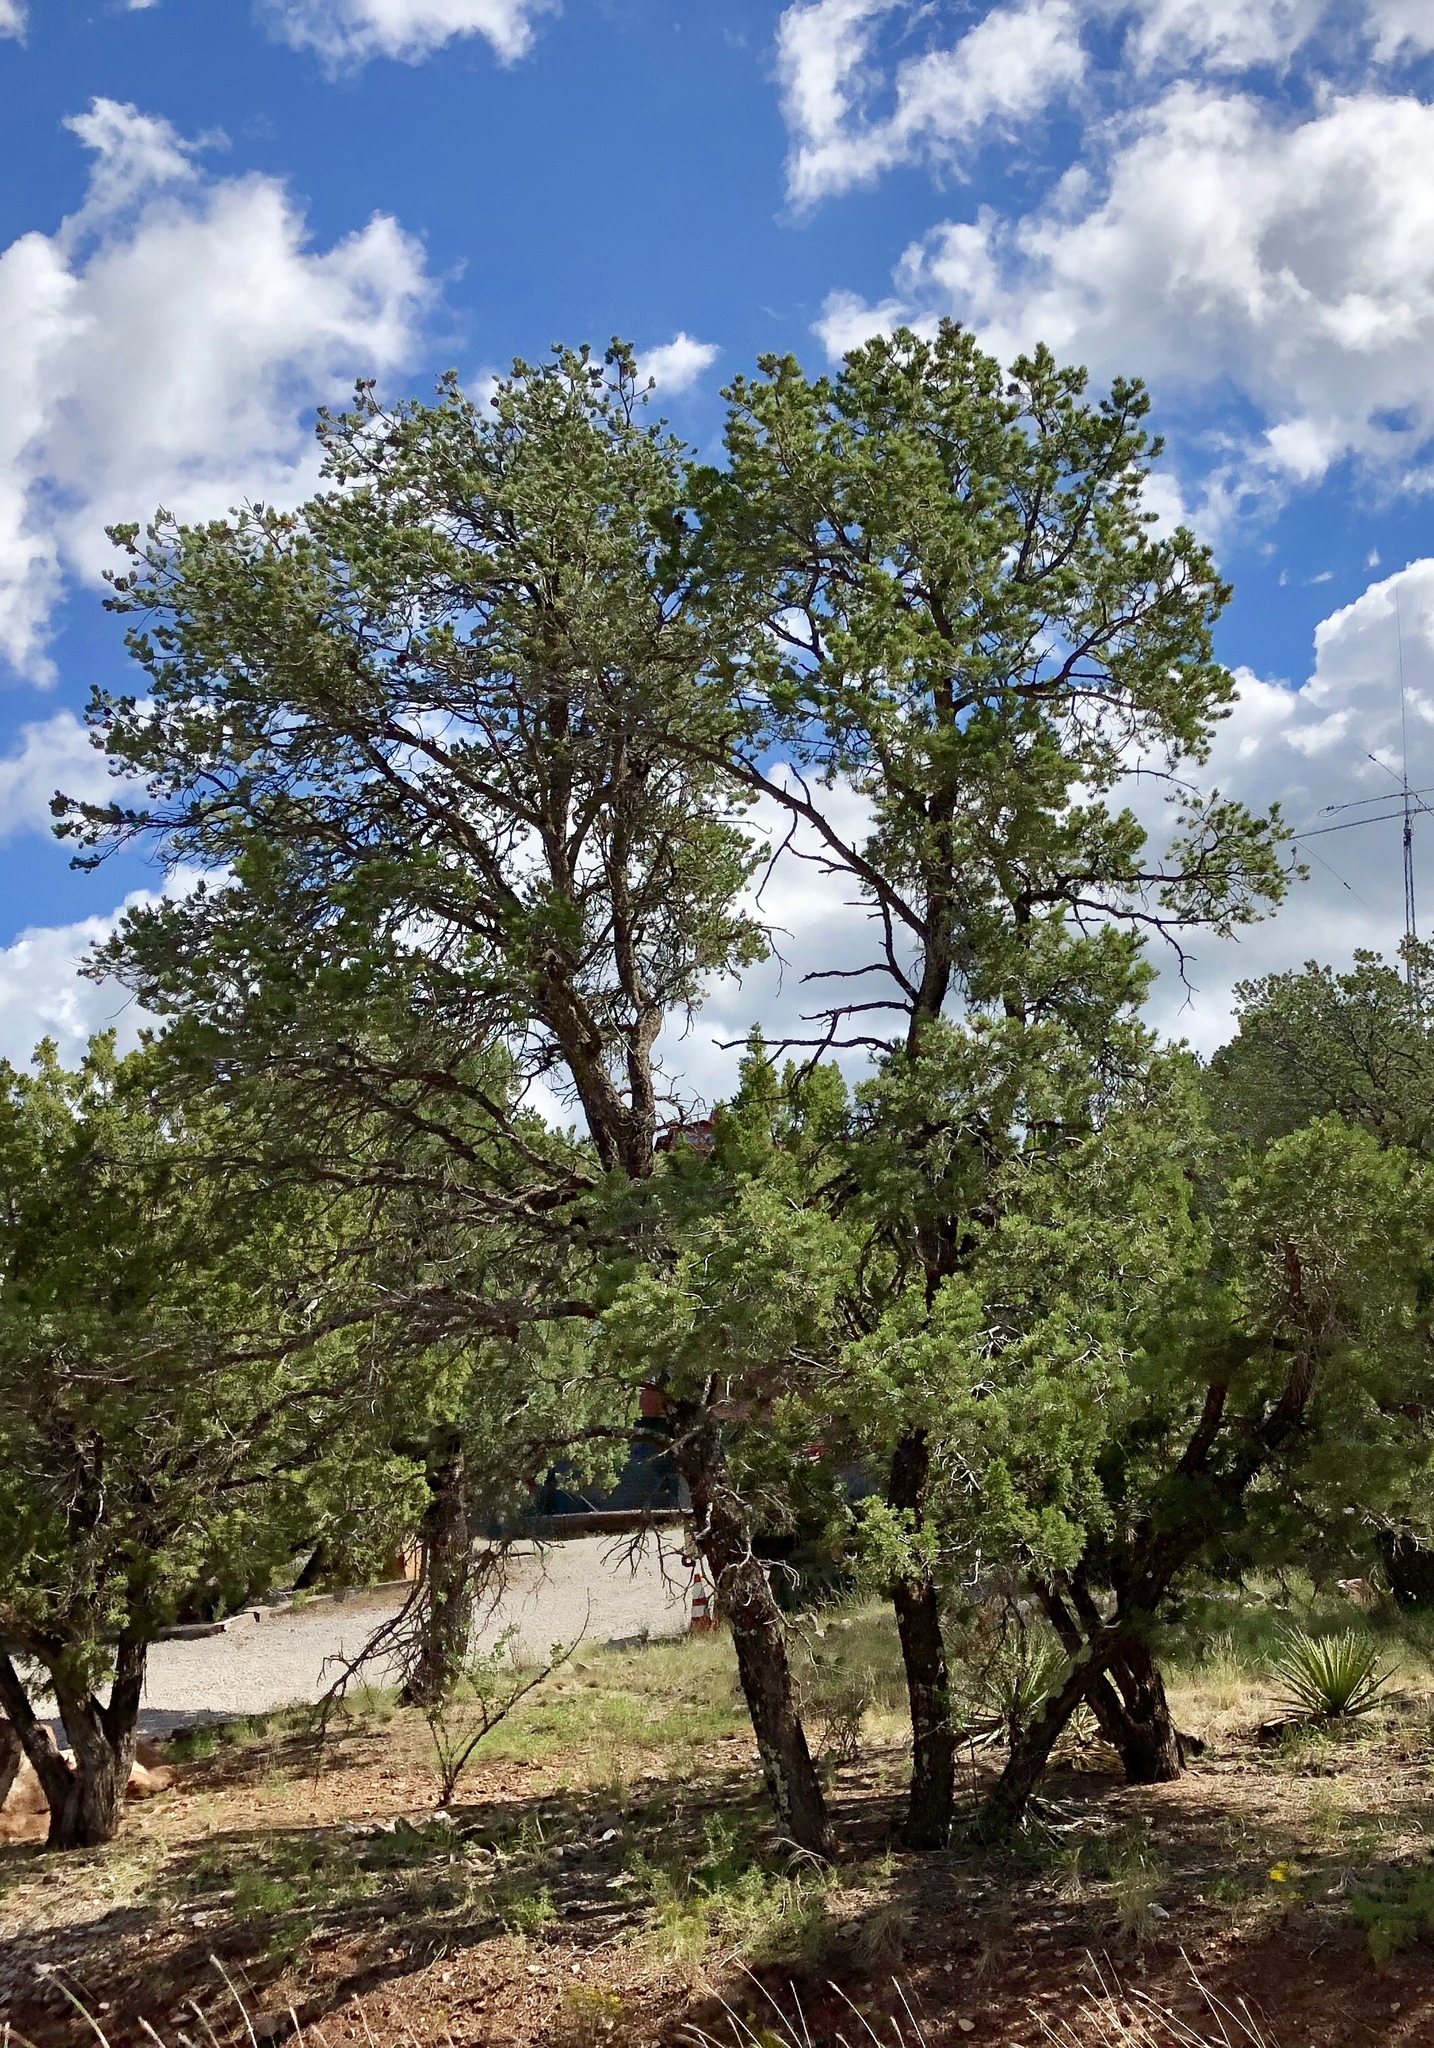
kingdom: Plantae
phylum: Tracheophyta
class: Pinopsida
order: Pinales
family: Pinaceae
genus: Pinus
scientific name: Pinus edulis
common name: Colorado pinyon
